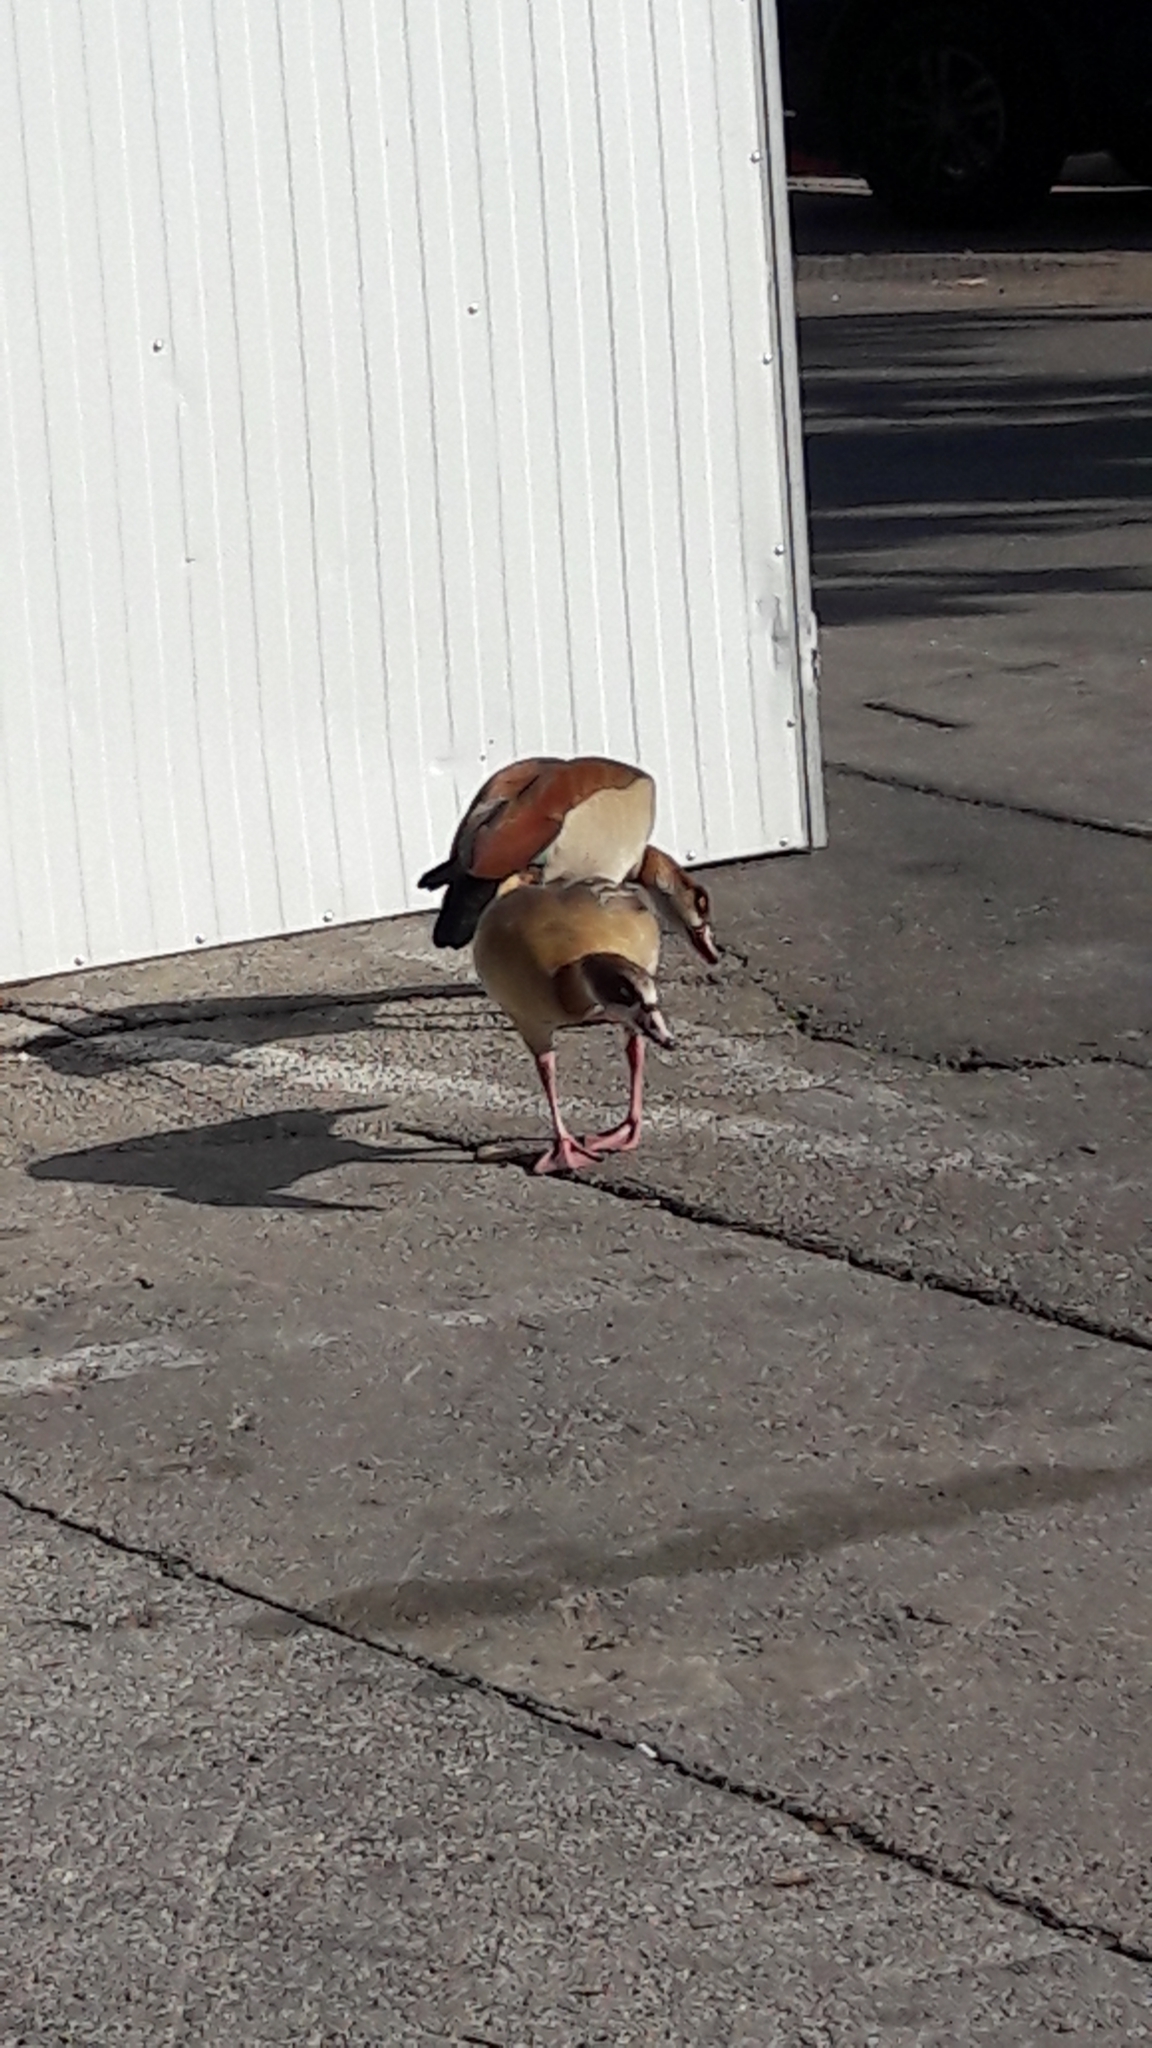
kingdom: Animalia
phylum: Chordata
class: Aves
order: Anseriformes
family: Anatidae
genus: Alopochen
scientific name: Alopochen aegyptiaca
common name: Egyptian goose
